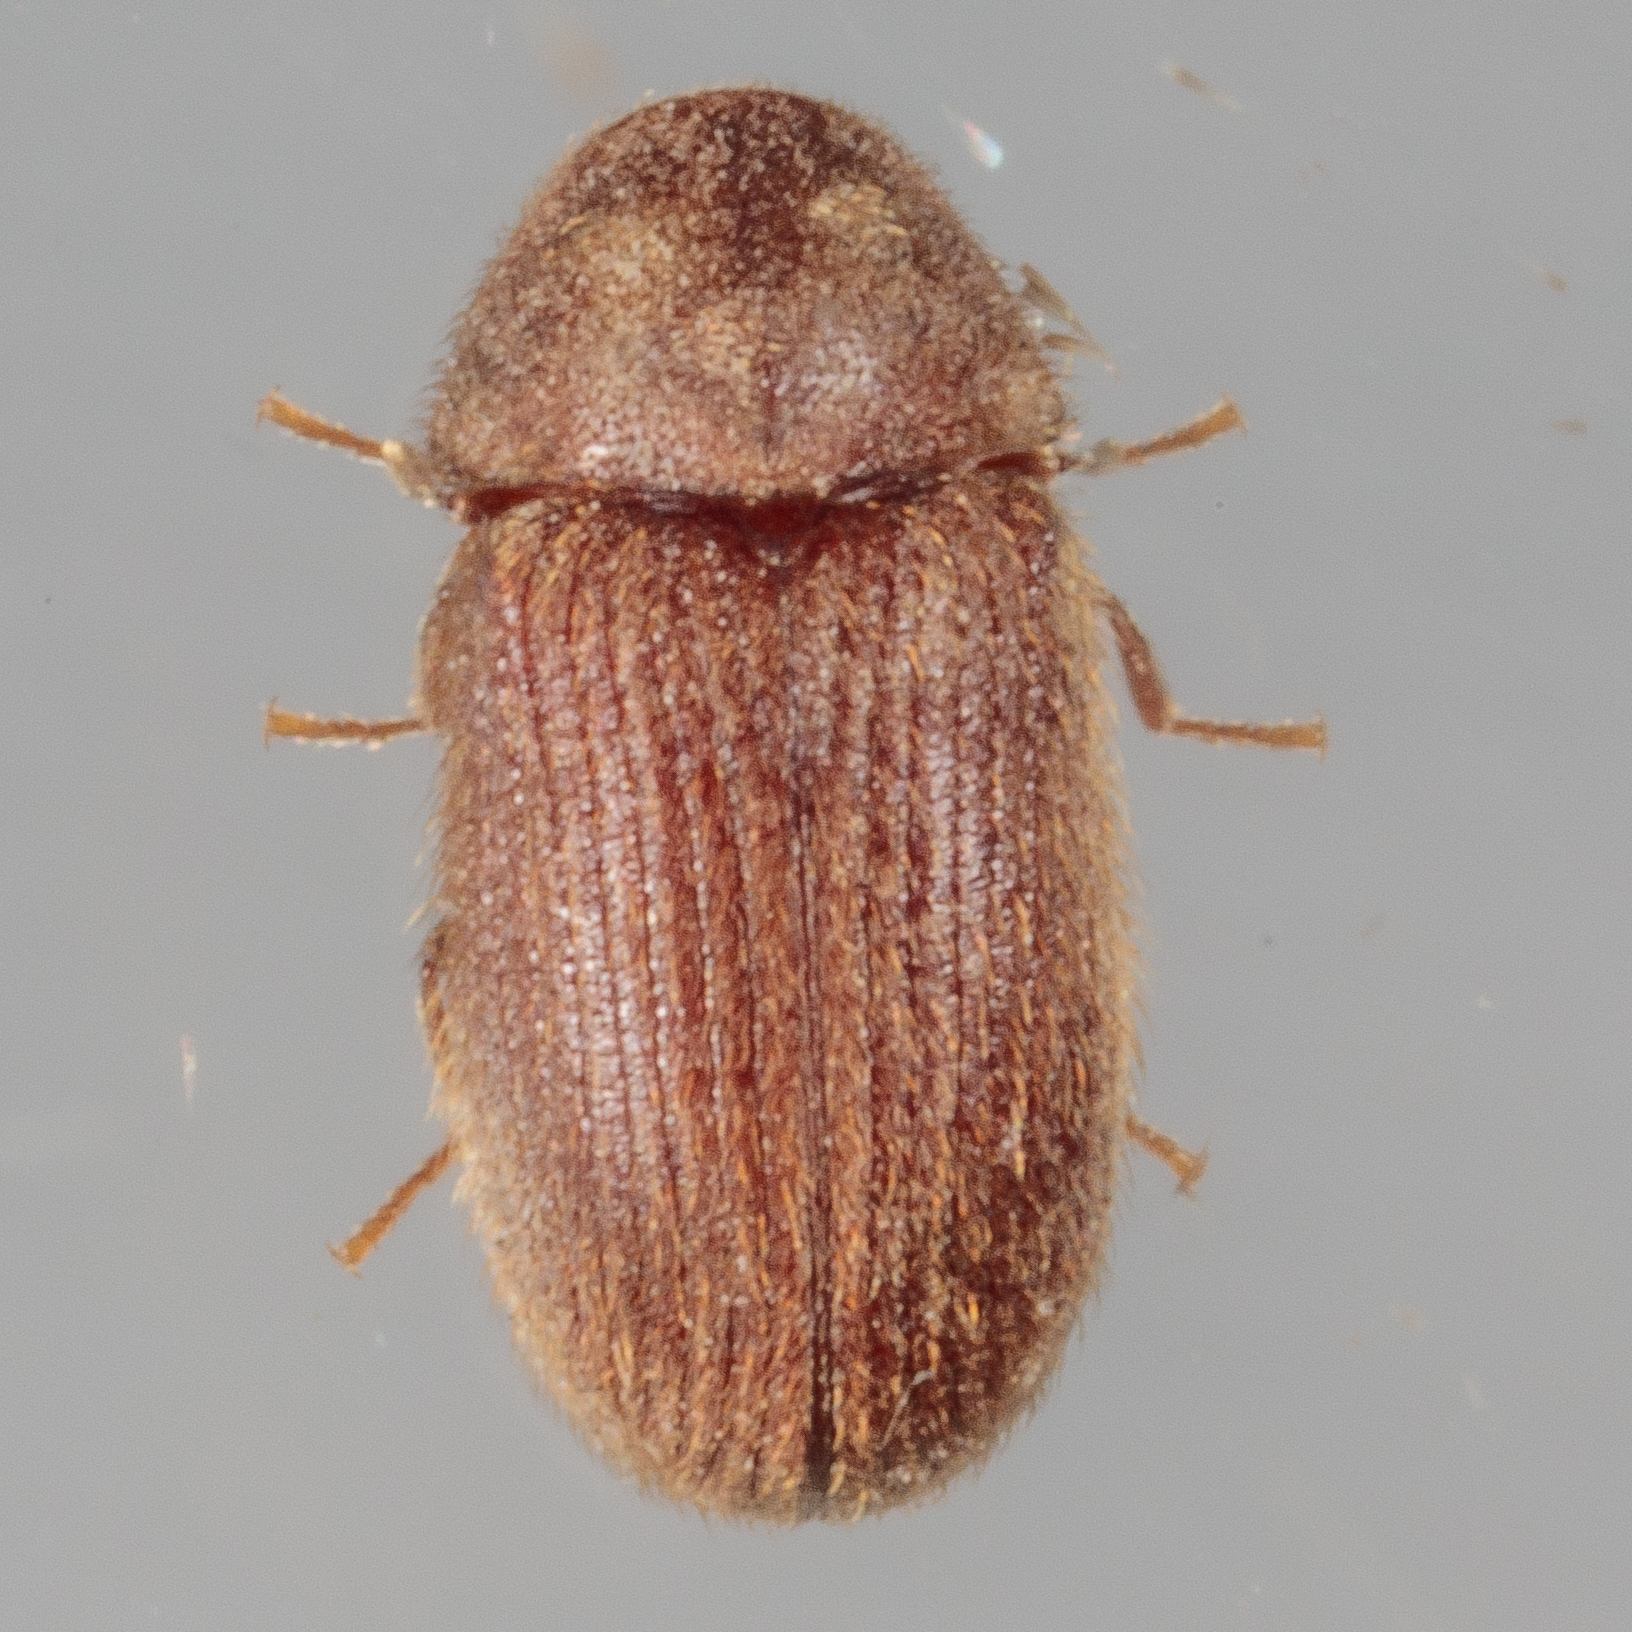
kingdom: Animalia
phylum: Arthropoda
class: Insecta
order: Coleoptera
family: Anobiidae
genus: Stegobium
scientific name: Stegobium paniceum
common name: Drugstore beetle
